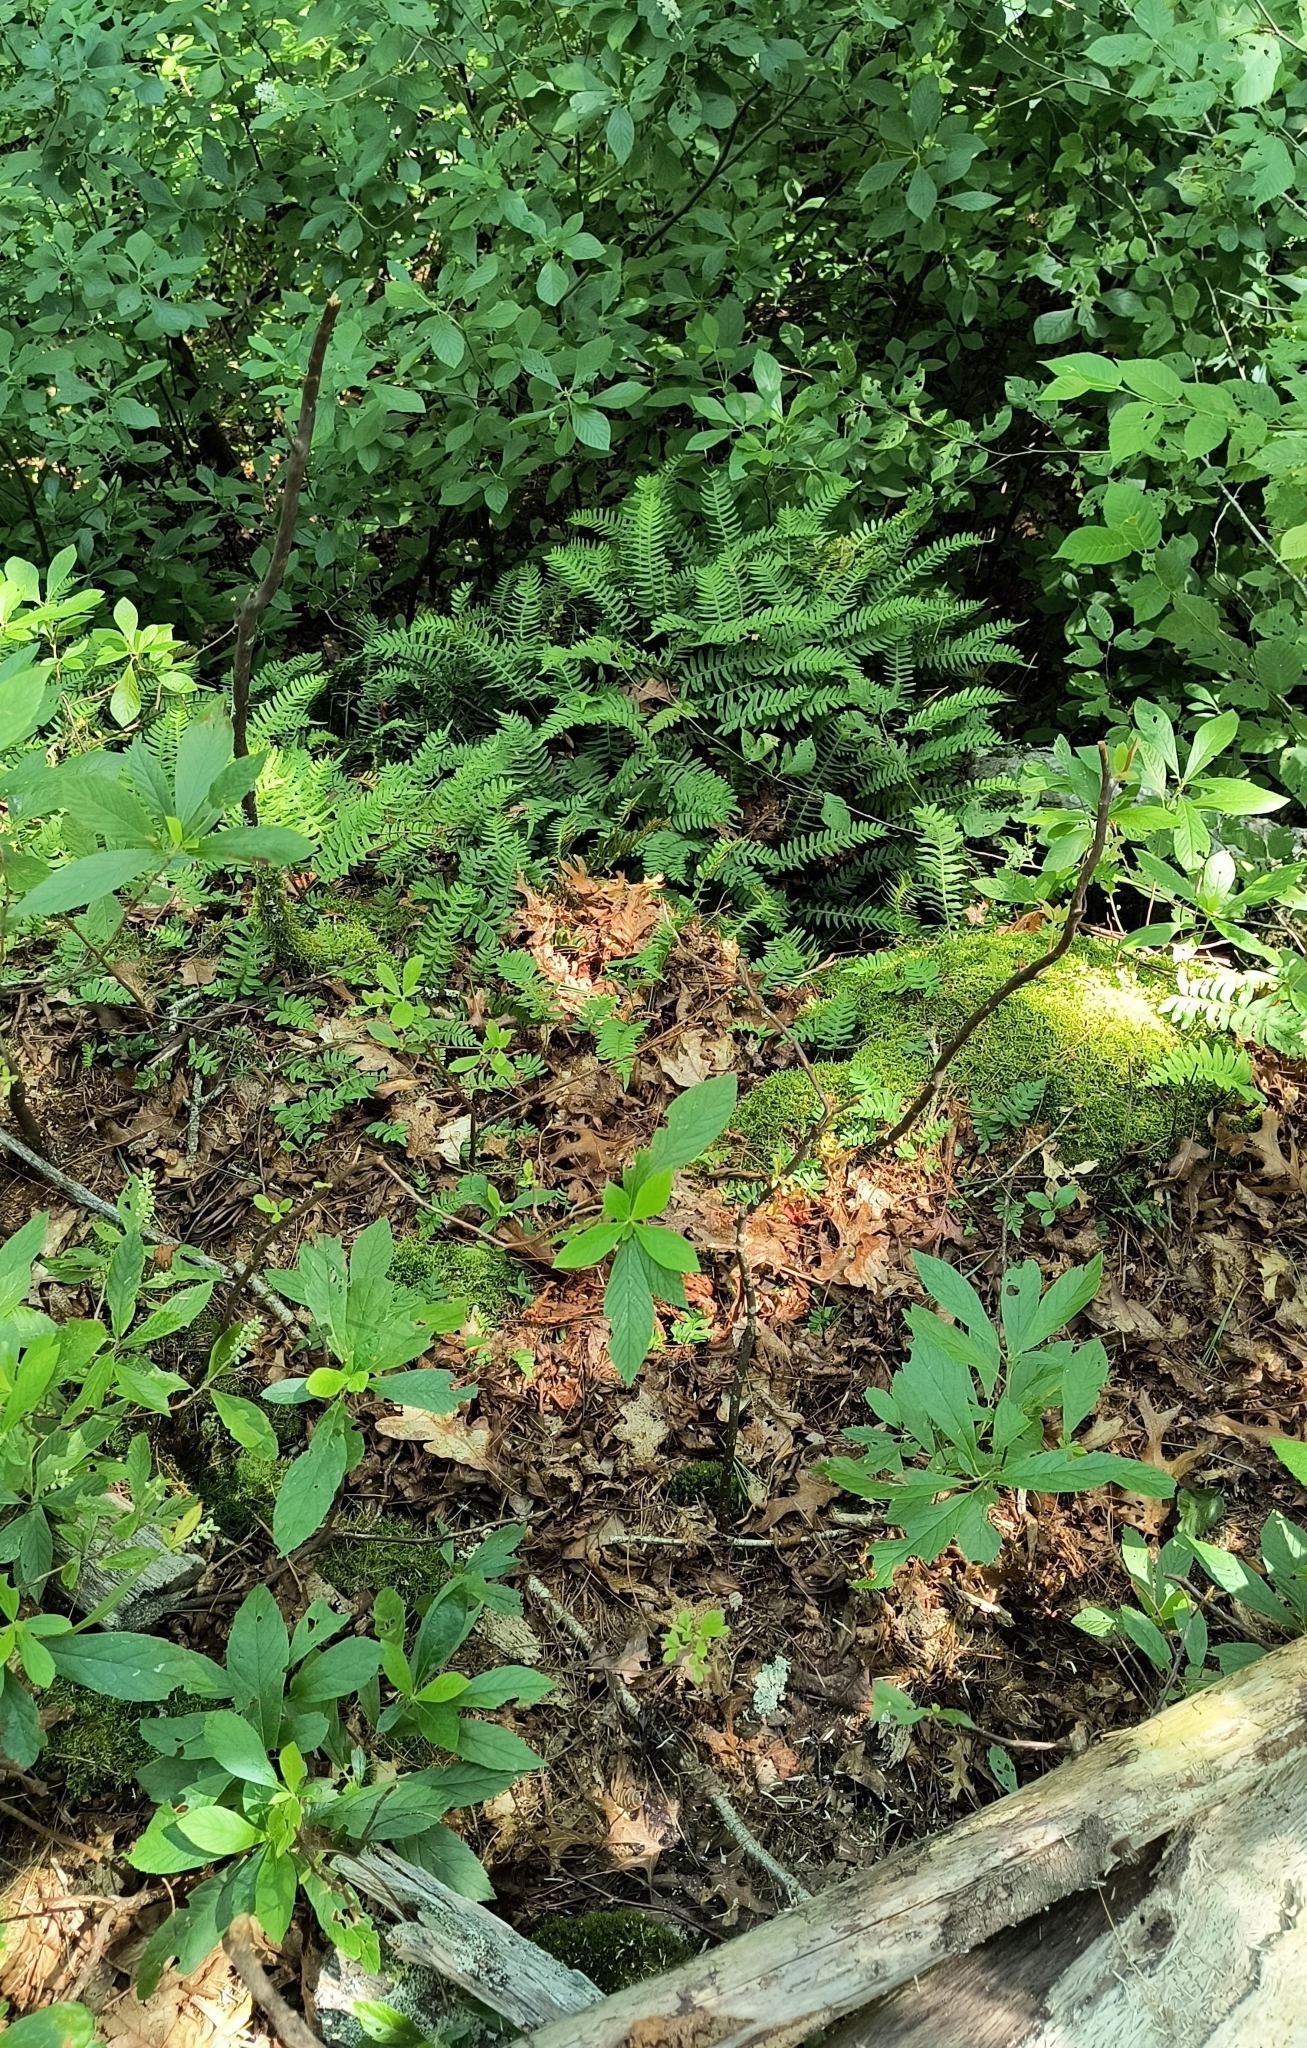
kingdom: Plantae
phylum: Tracheophyta
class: Polypodiopsida
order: Polypodiales
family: Polypodiaceae
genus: Polypodium
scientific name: Polypodium virginianum
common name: American wall fern
